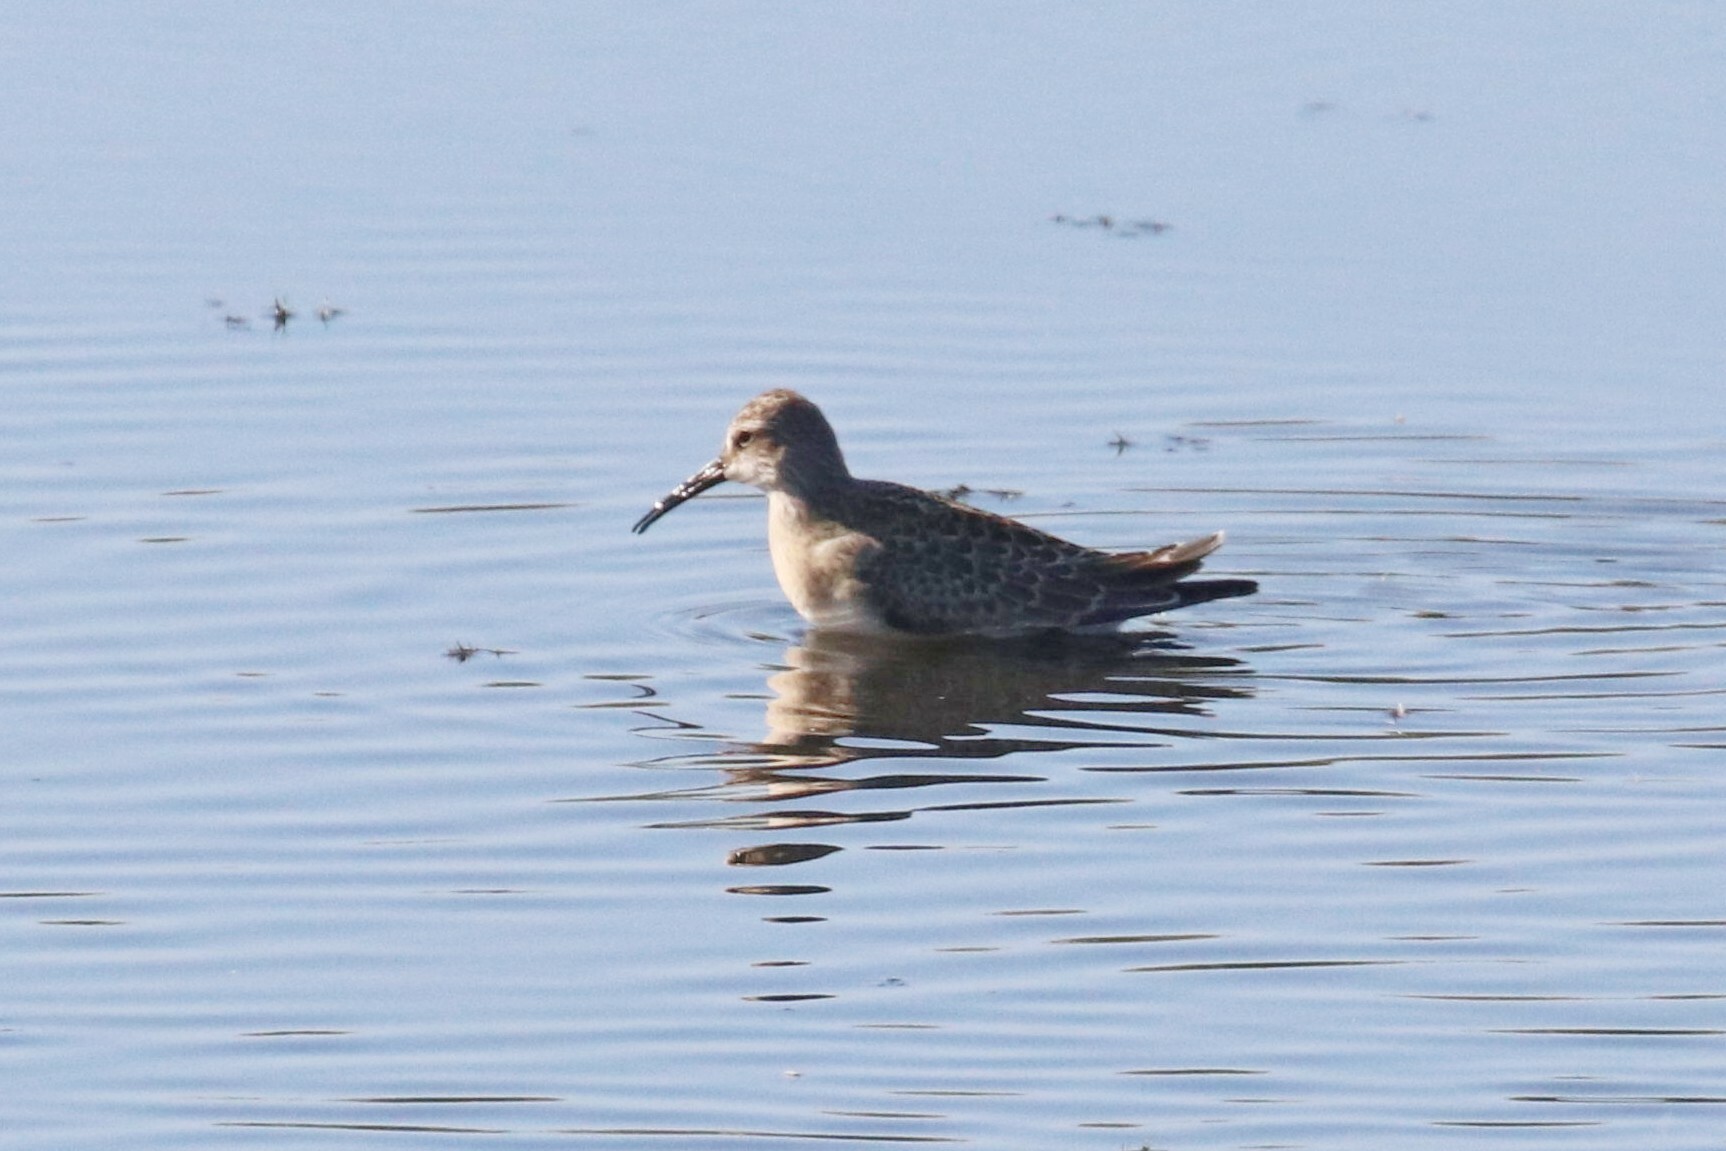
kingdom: Animalia
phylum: Chordata
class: Aves
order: Charadriiformes
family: Scolopacidae
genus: Calidris
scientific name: Calidris ferruginea
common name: Curlew sandpiper
